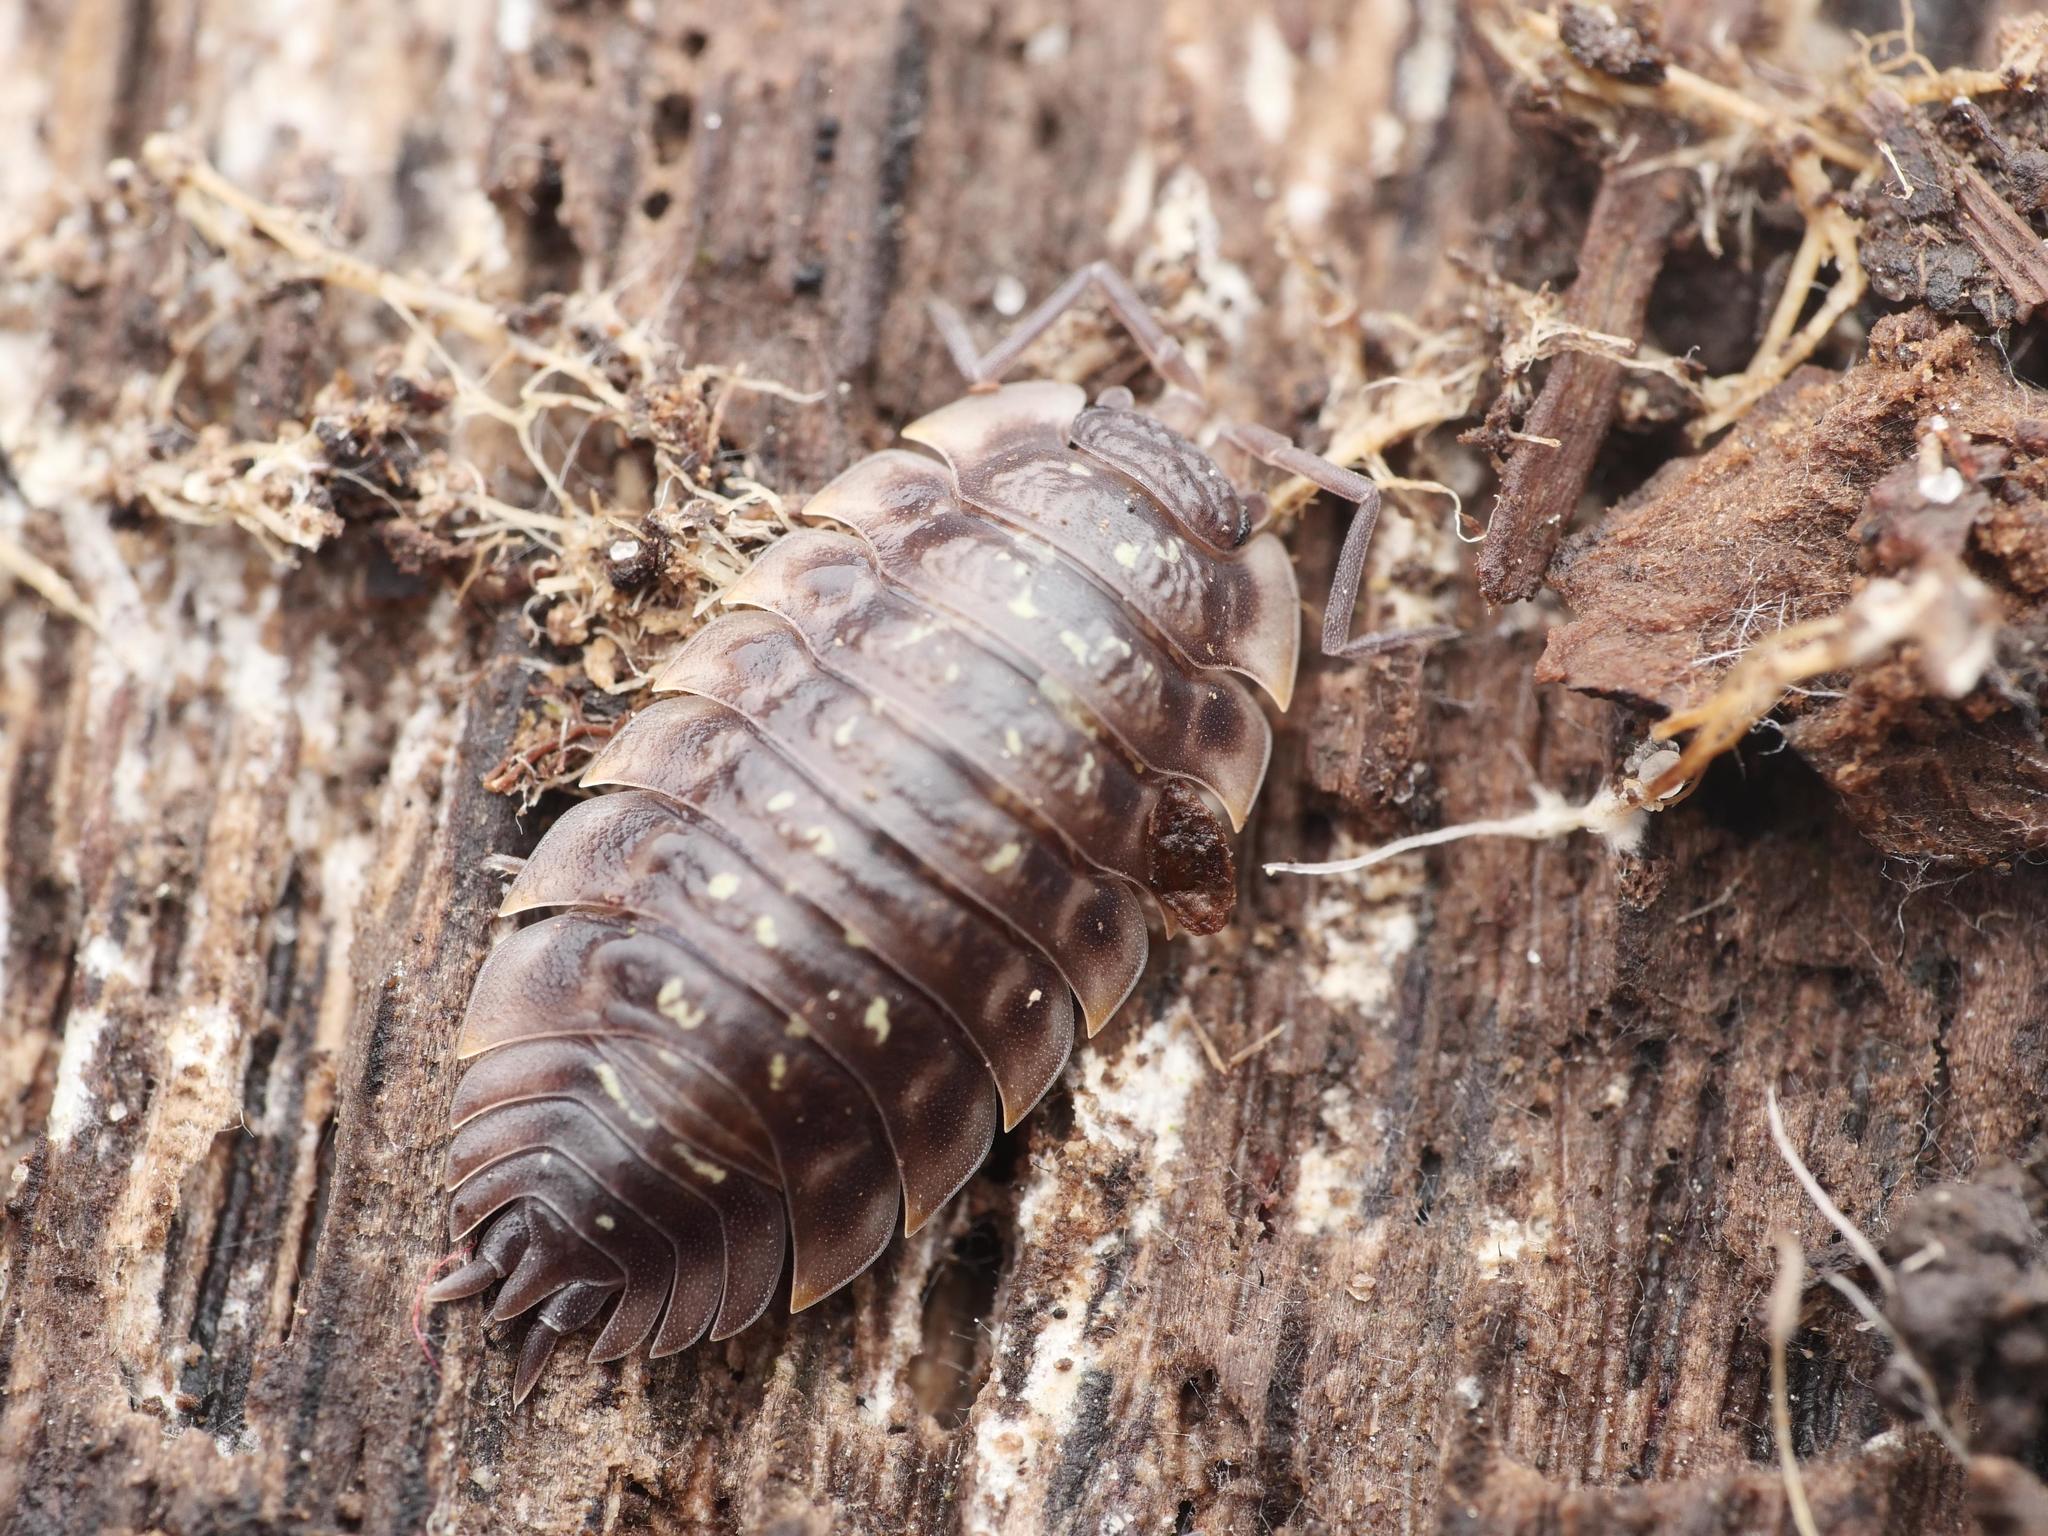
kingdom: Animalia
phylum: Arthropoda
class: Malacostraca
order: Isopoda
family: Oniscidae
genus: Oniscus
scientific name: Oniscus asellus
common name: Common shiny woodlouse
